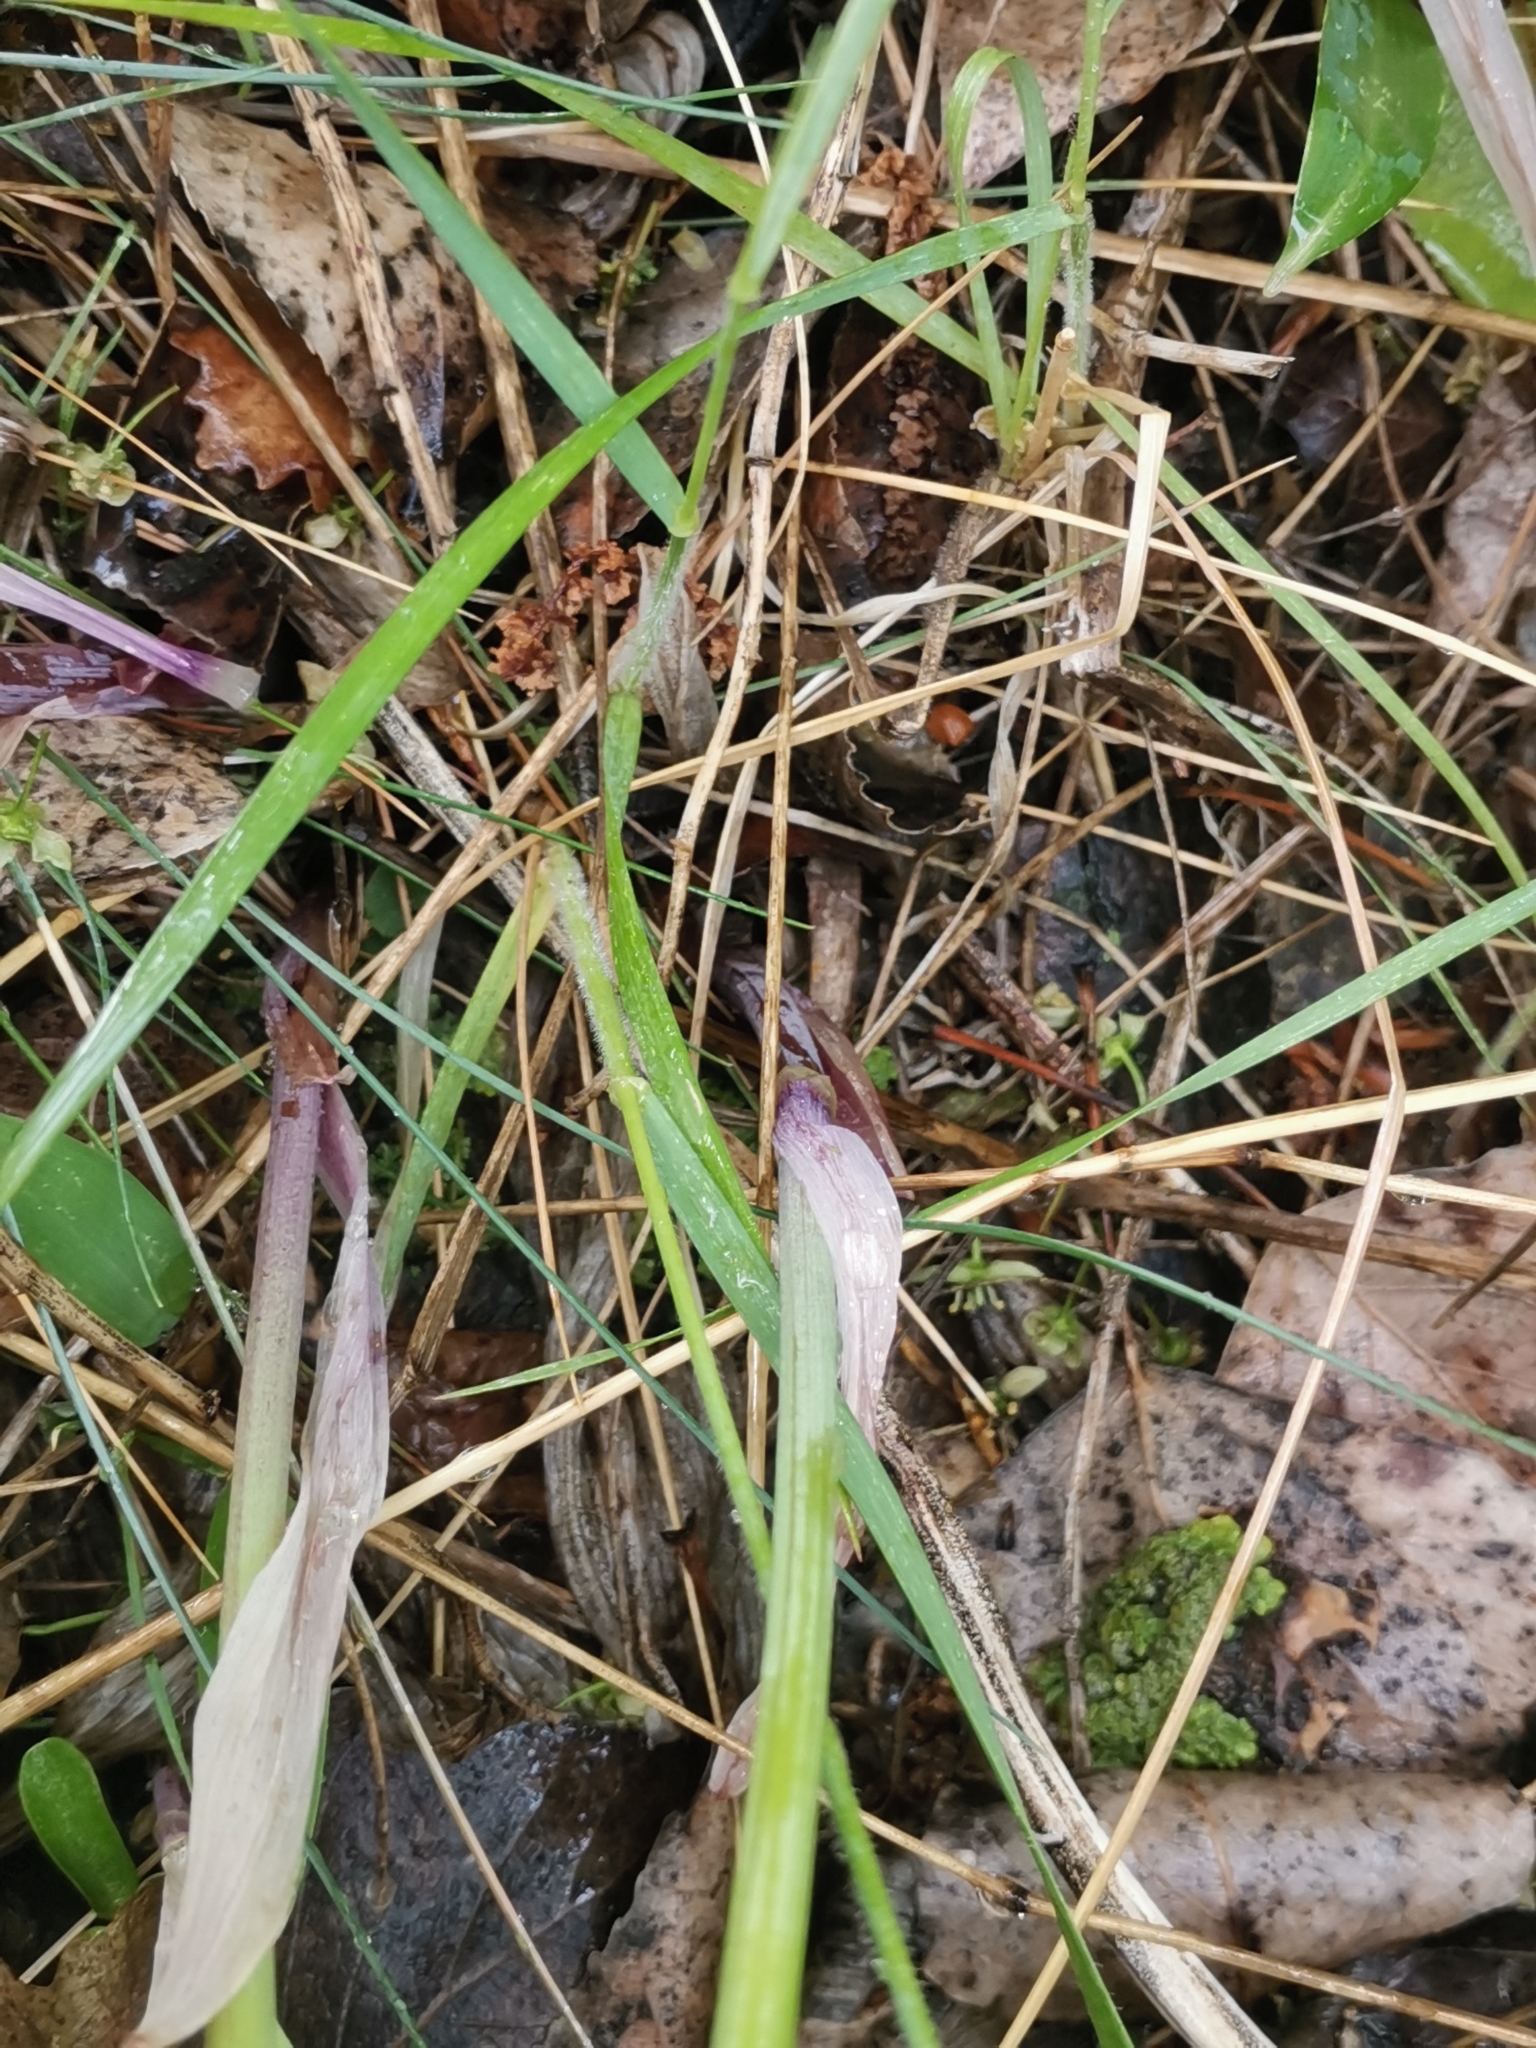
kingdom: Plantae
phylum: Tracheophyta
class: Liliopsida
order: Asparagales
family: Asparagaceae
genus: Polygonatum
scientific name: Polygonatum odoratum
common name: Angular solomon's-seal
